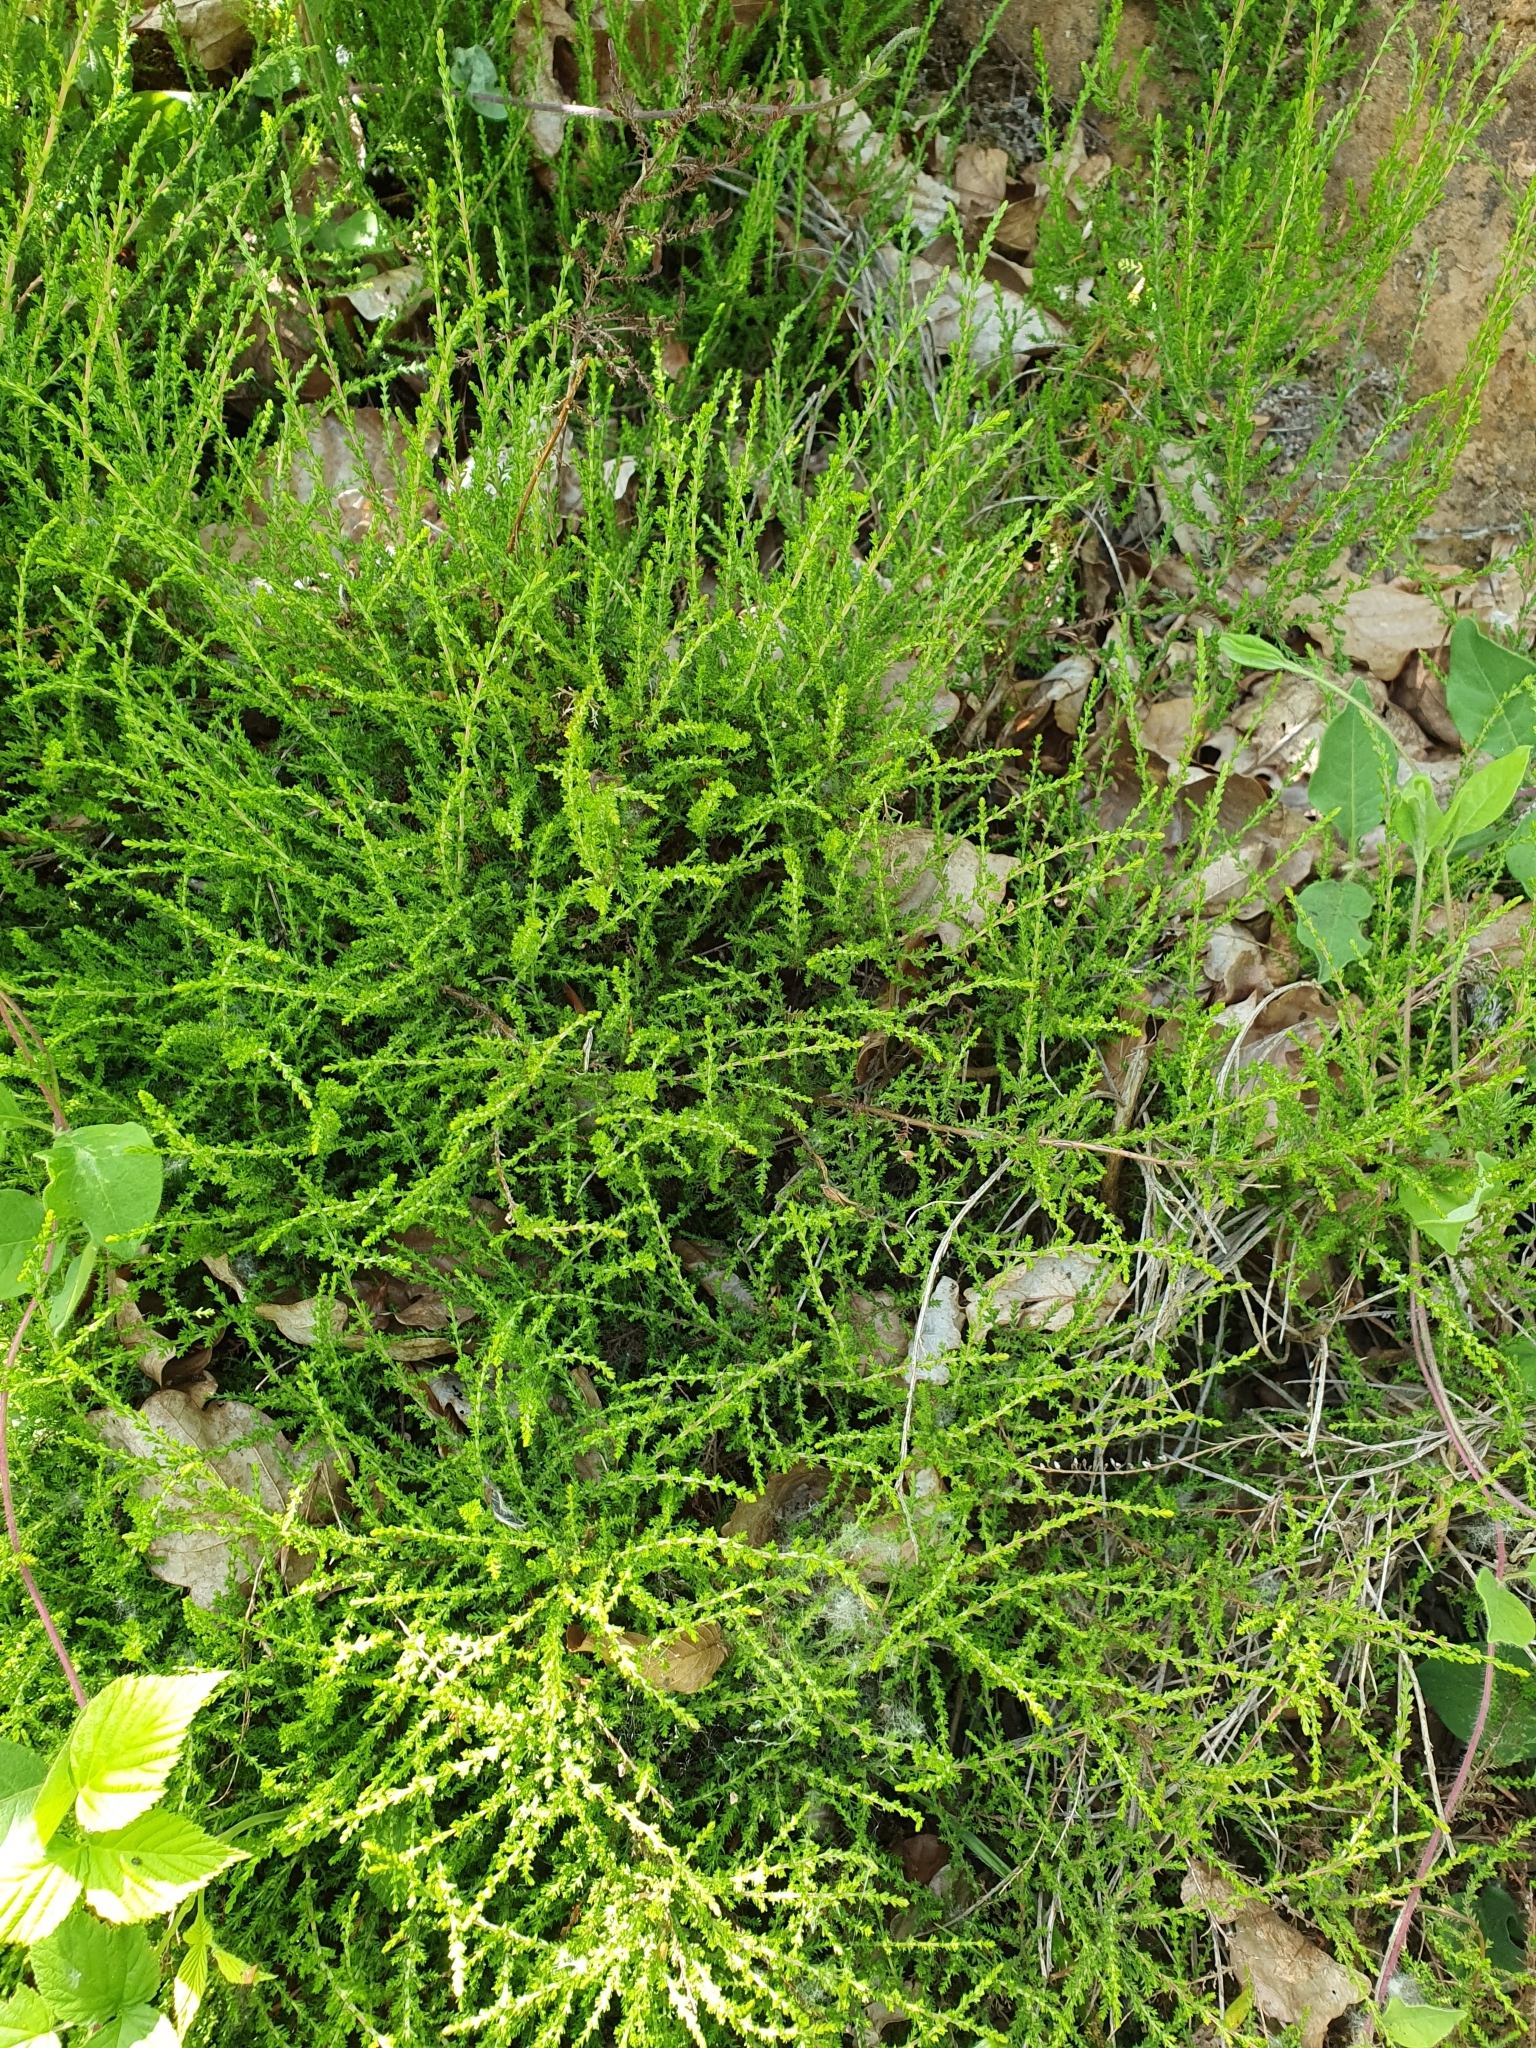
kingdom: Plantae
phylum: Tracheophyta
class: Magnoliopsida
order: Ericales
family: Ericaceae
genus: Calluna
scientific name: Calluna vulgaris
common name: Heather
